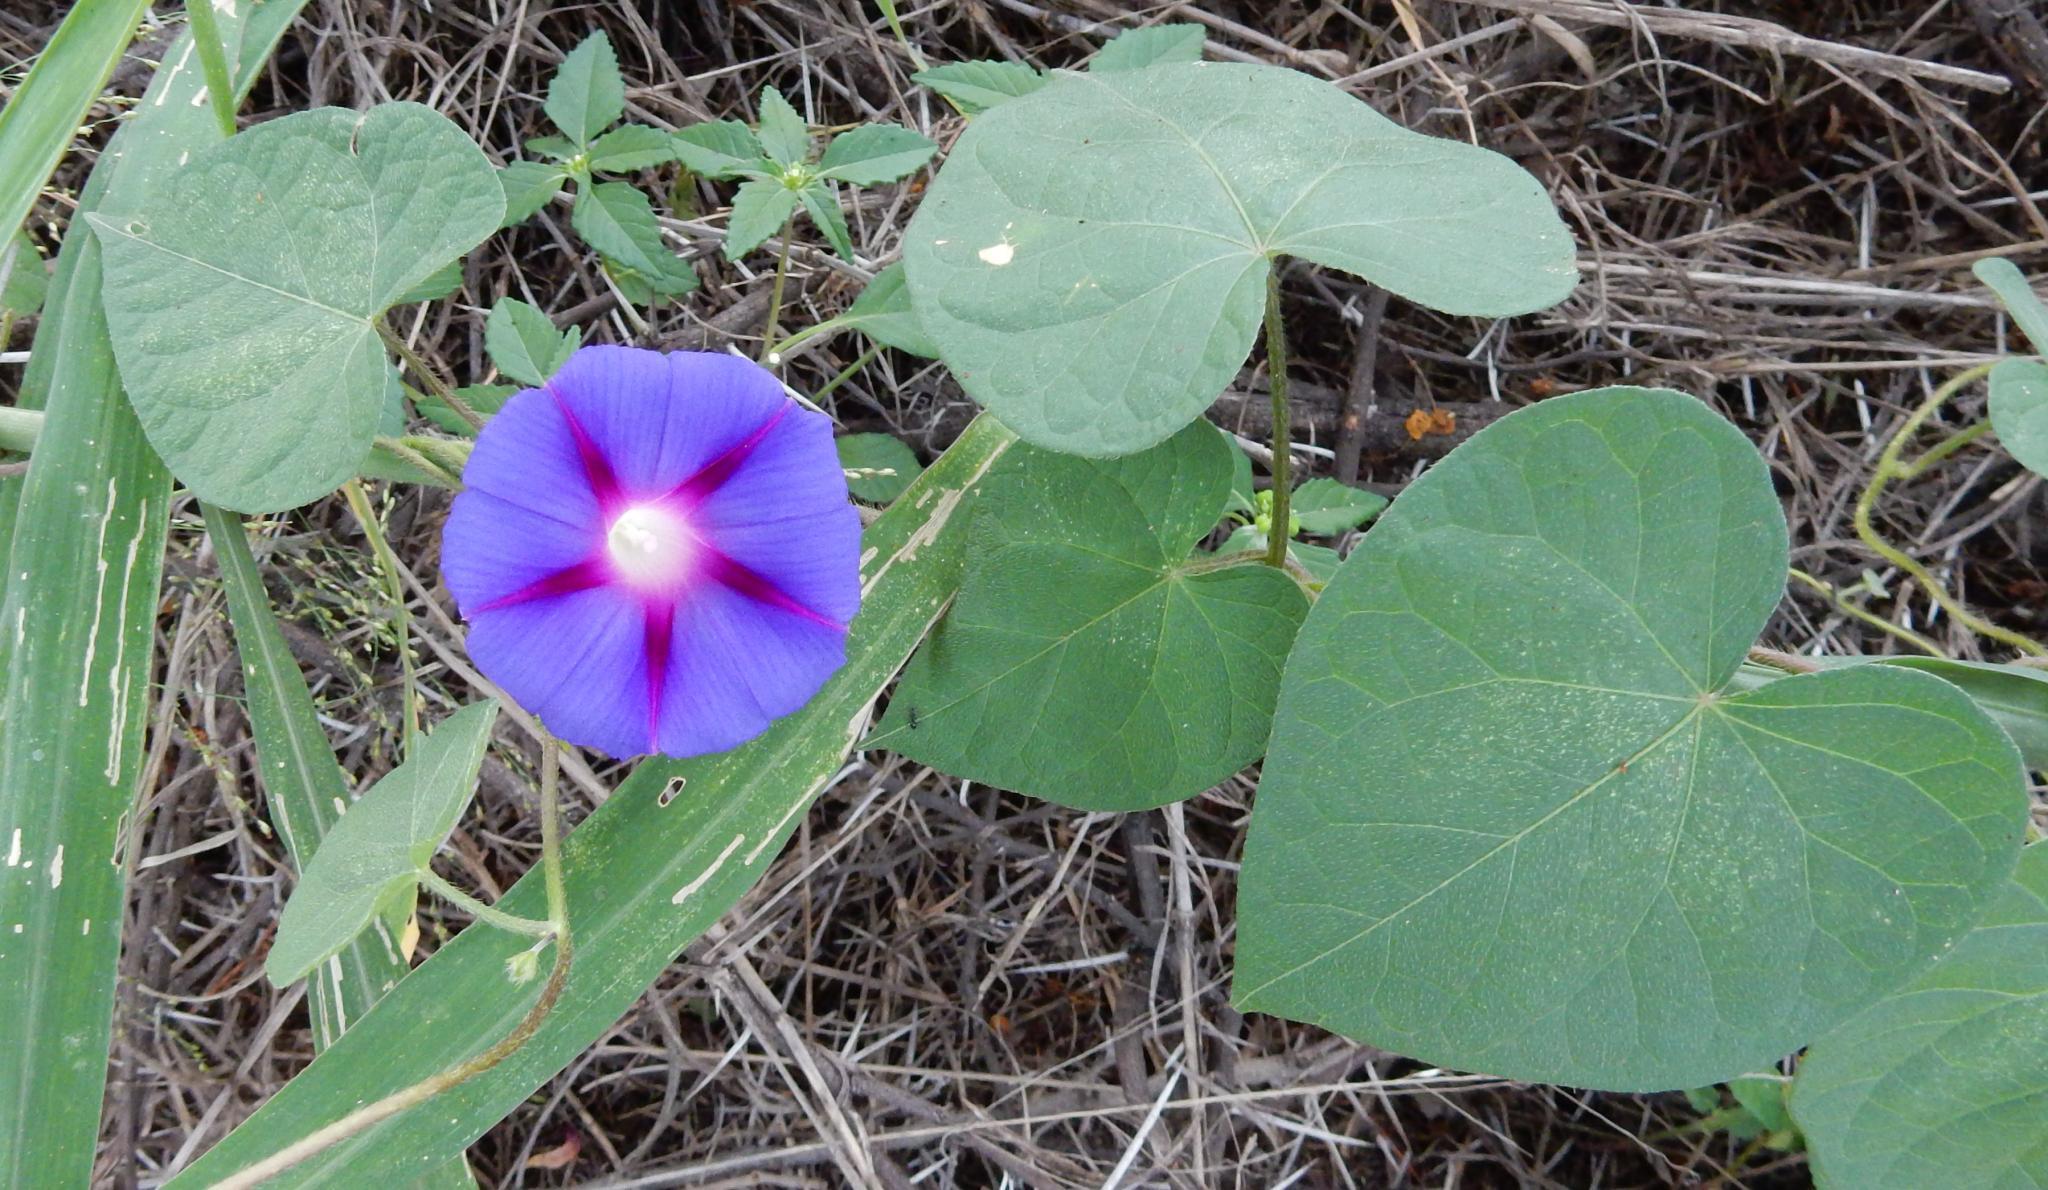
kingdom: Plantae
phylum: Tracheophyta
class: Magnoliopsida
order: Solanales
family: Convolvulaceae
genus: Ipomoea
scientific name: Ipomoea purpurea
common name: Common morning-glory
